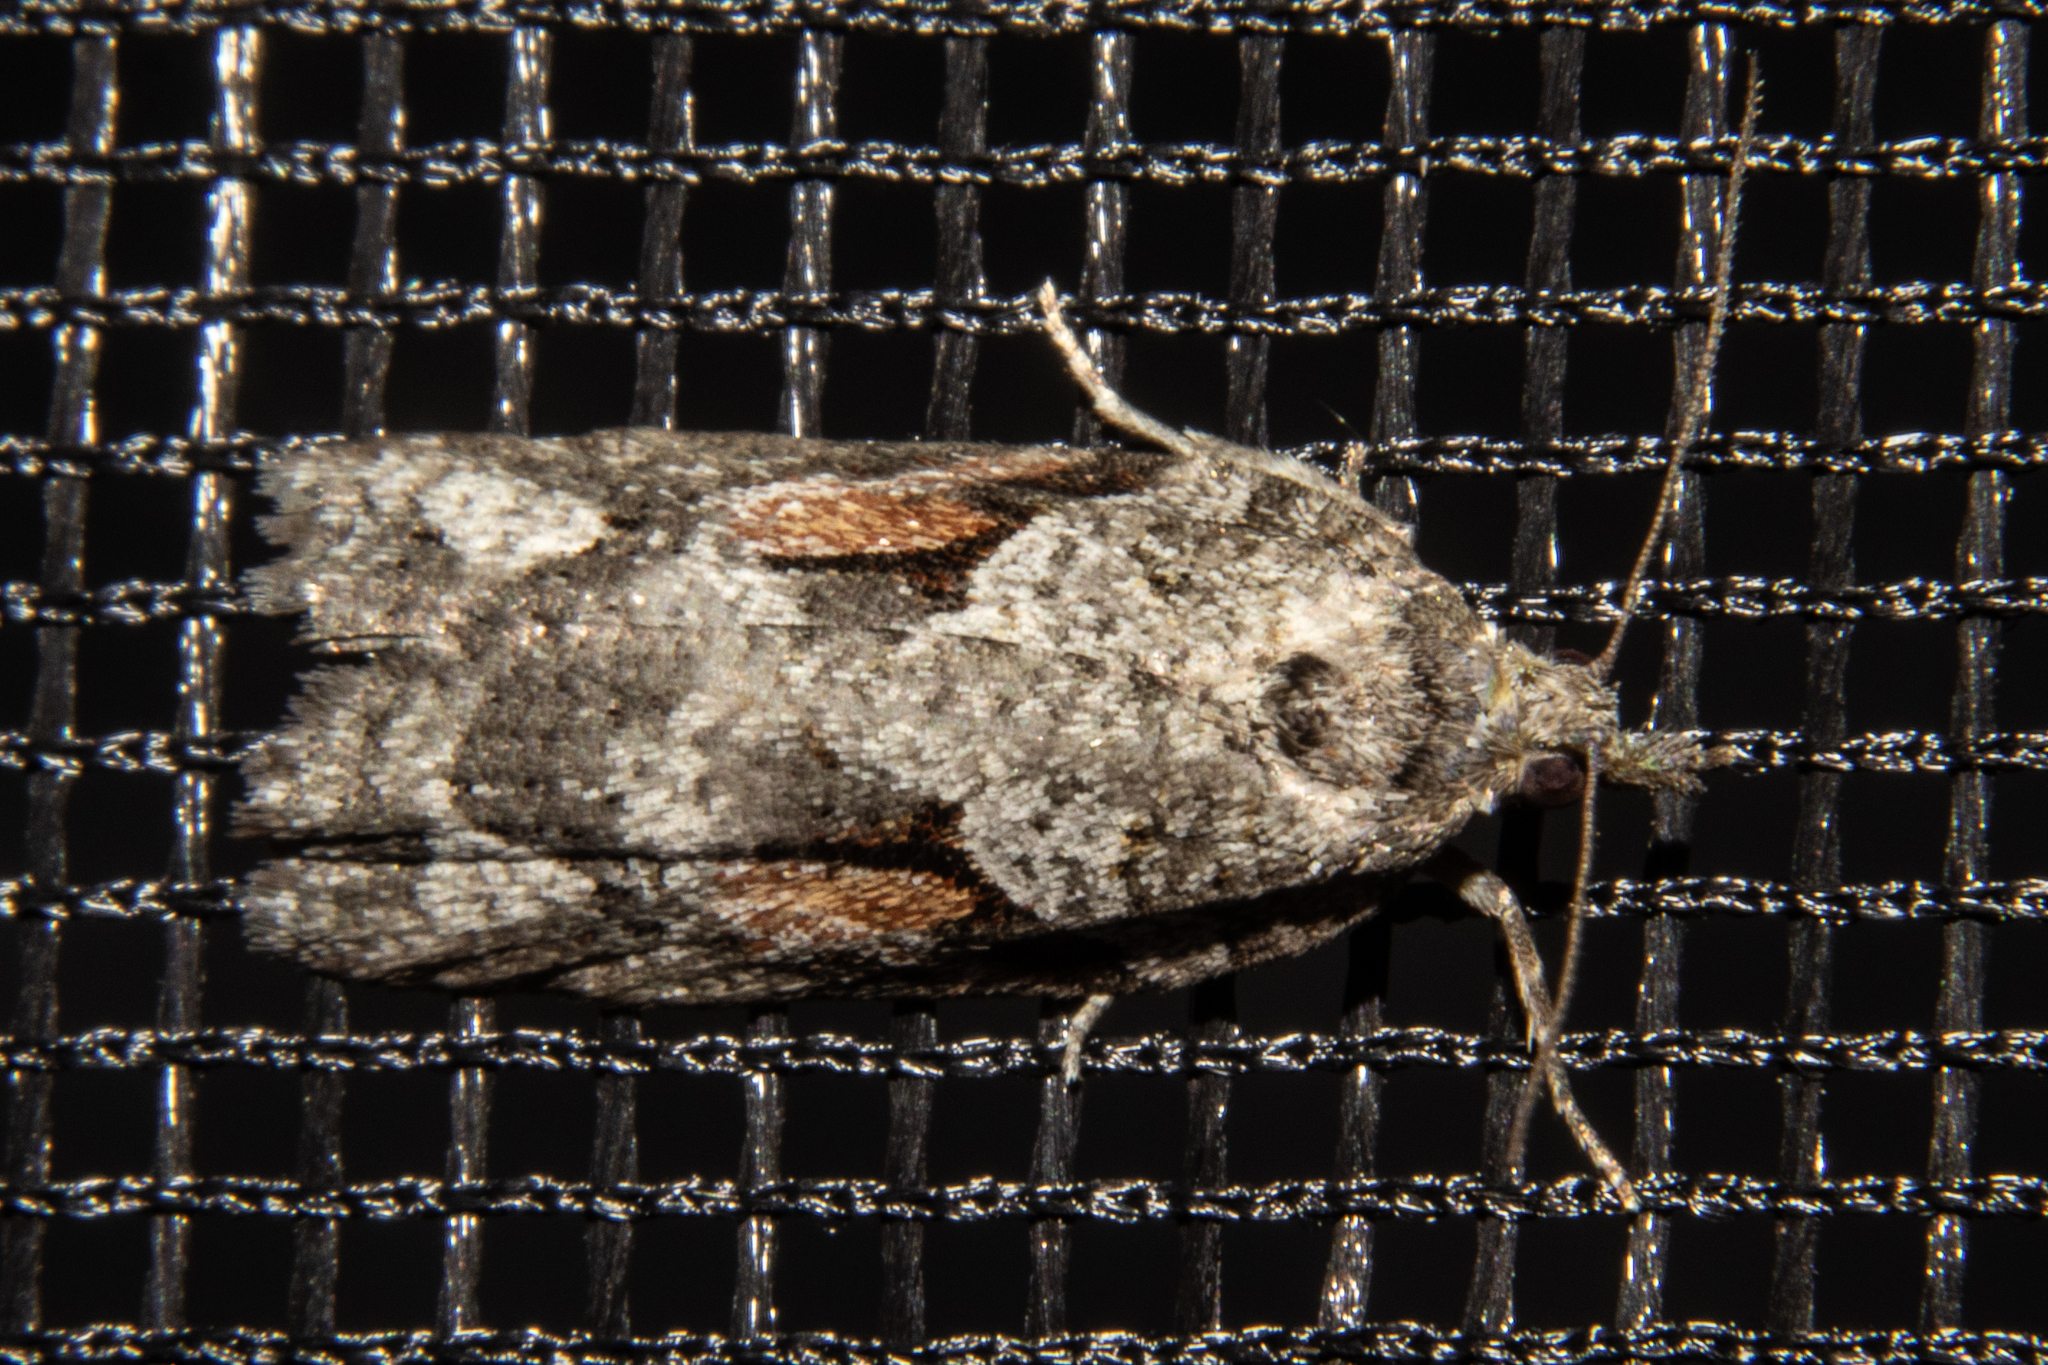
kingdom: Animalia
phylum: Arthropoda
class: Insecta
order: Lepidoptera
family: Tortricidae
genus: Harmologa
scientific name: Harmologa oblongana
